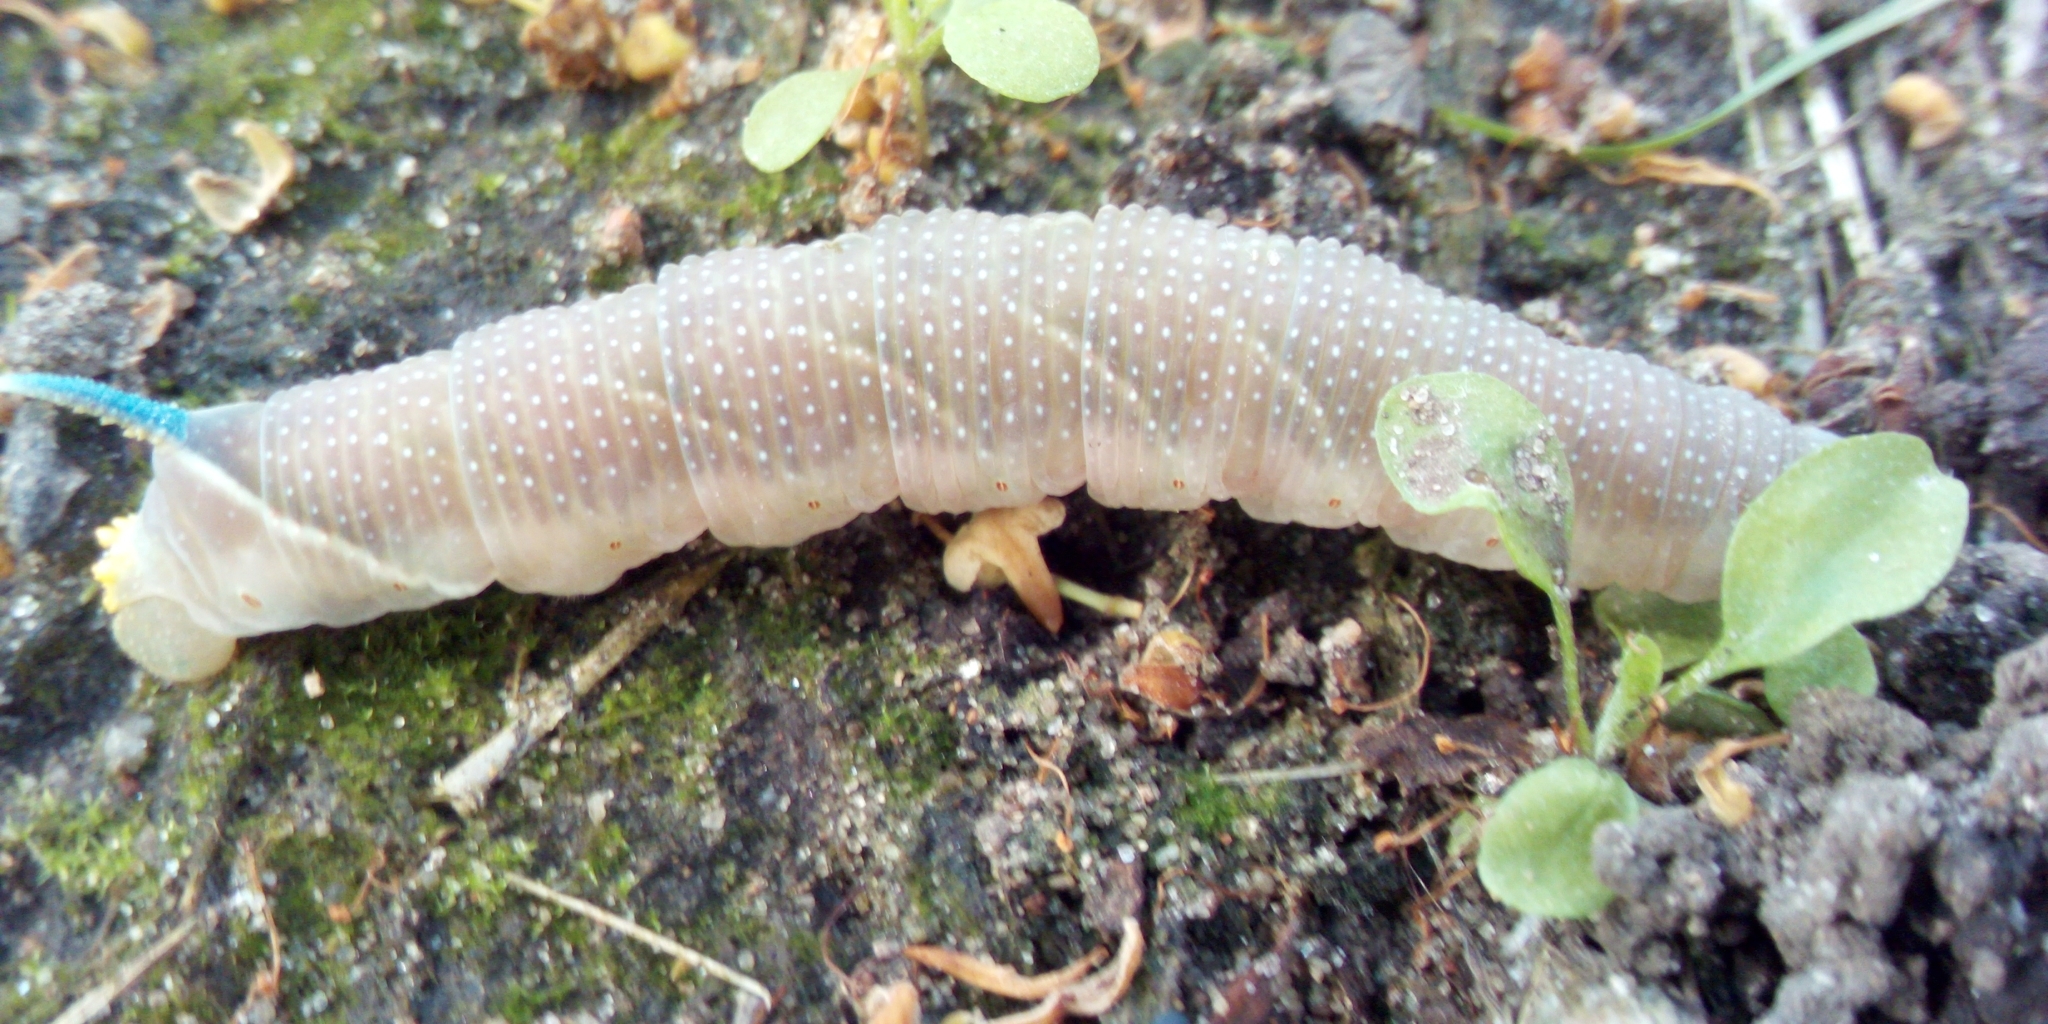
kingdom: Animalia
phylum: Arthropoda
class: Insecta
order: Lepidoptera
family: Sphingidae
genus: Mimas
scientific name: Mimas tiliae
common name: Lime hawk-moth
